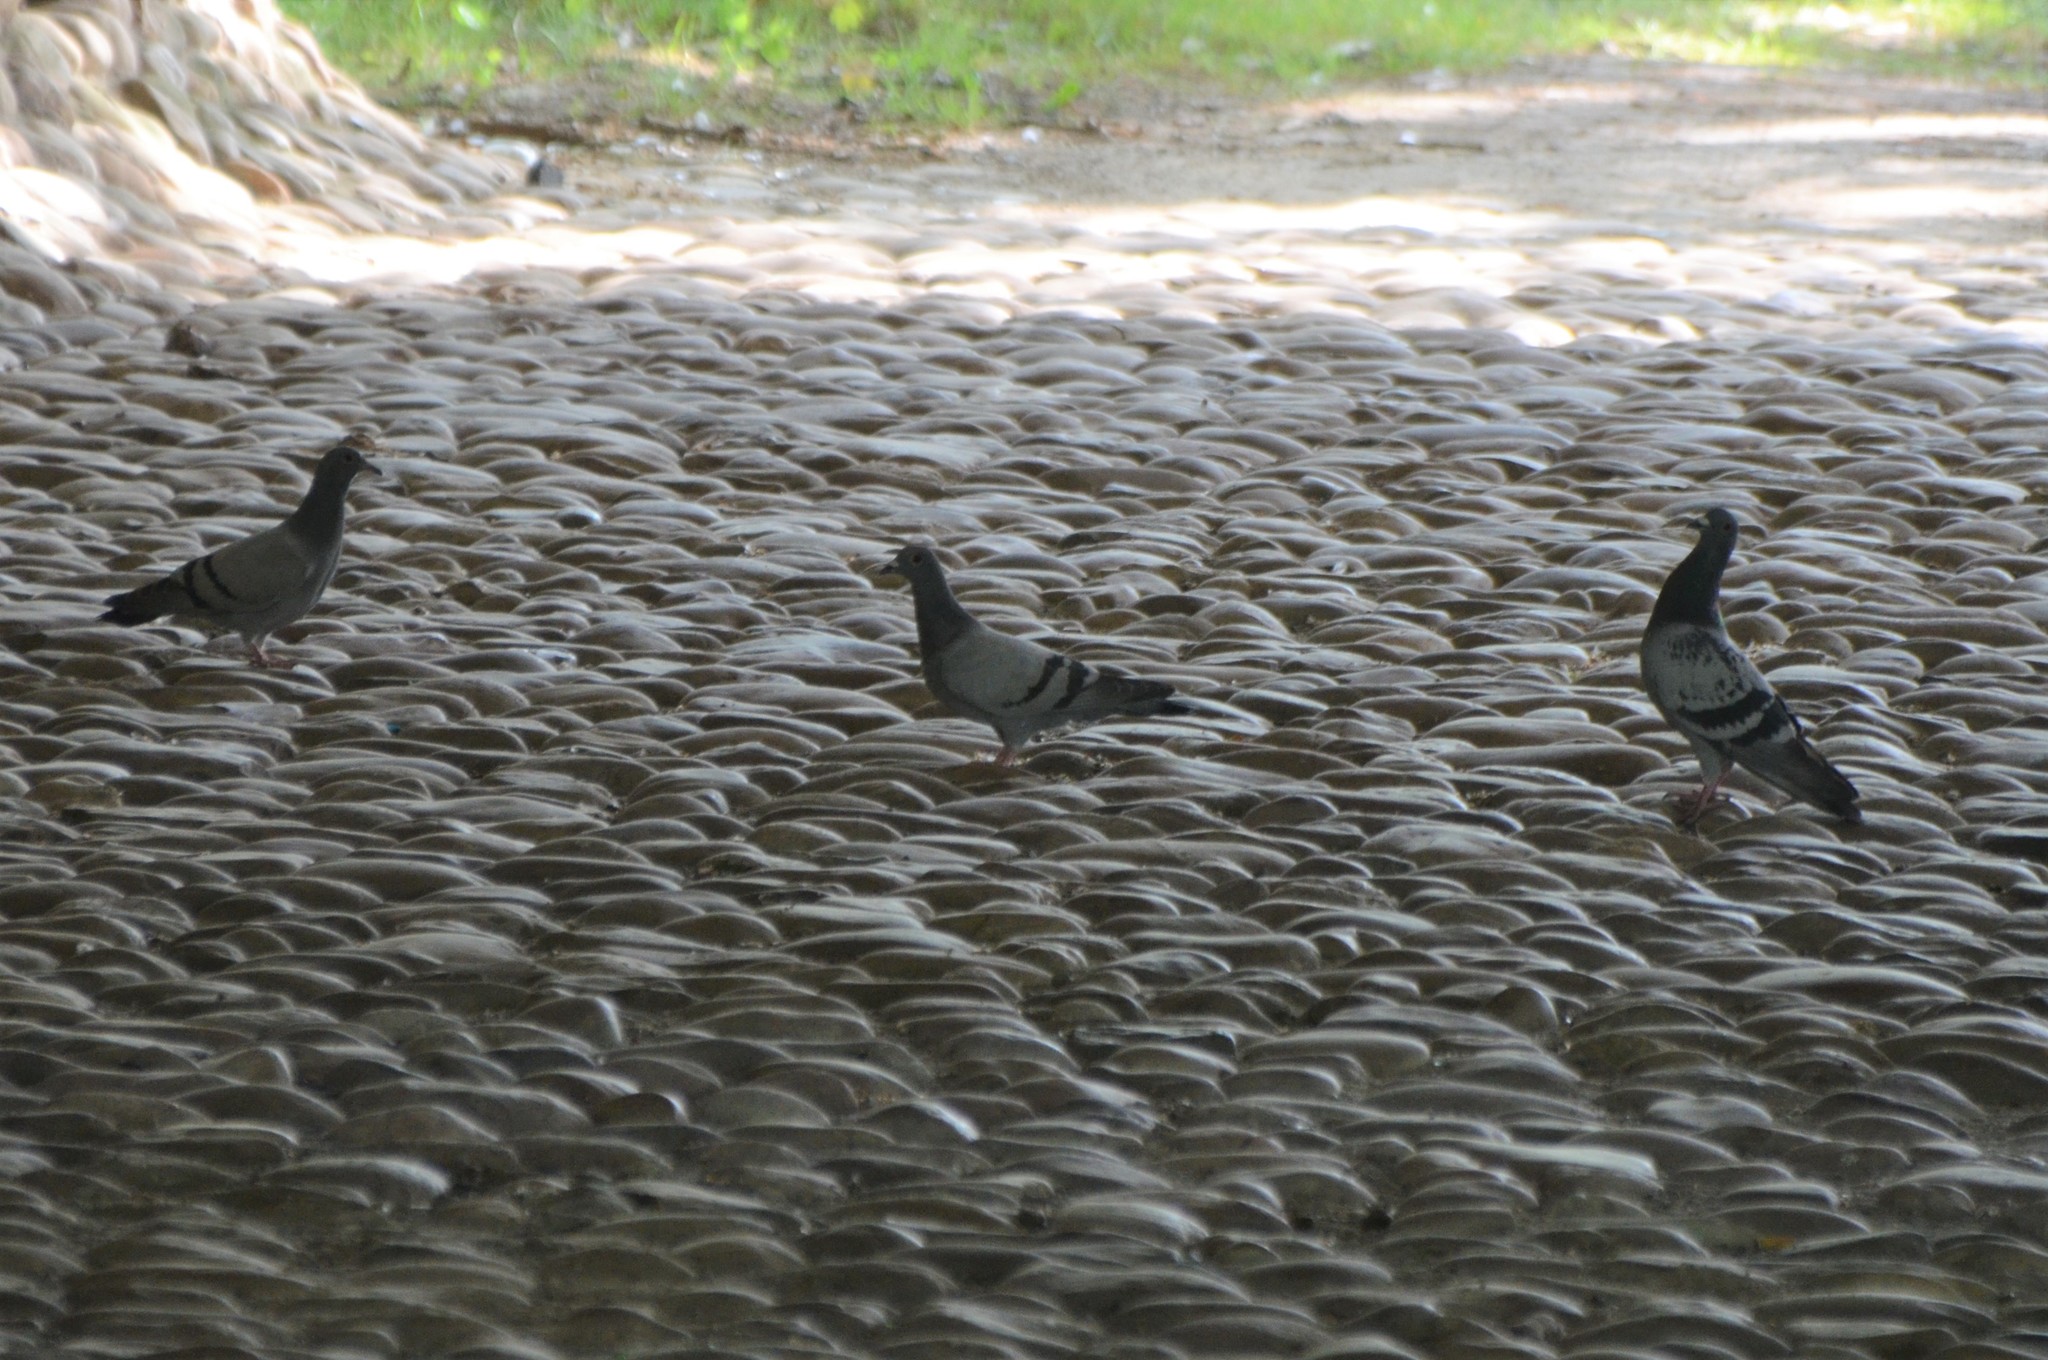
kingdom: Animalia
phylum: Chordata
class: Aves
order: Columbiformes
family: Columbidae
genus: Columba
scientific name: Columba livia
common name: Rock pigeon
